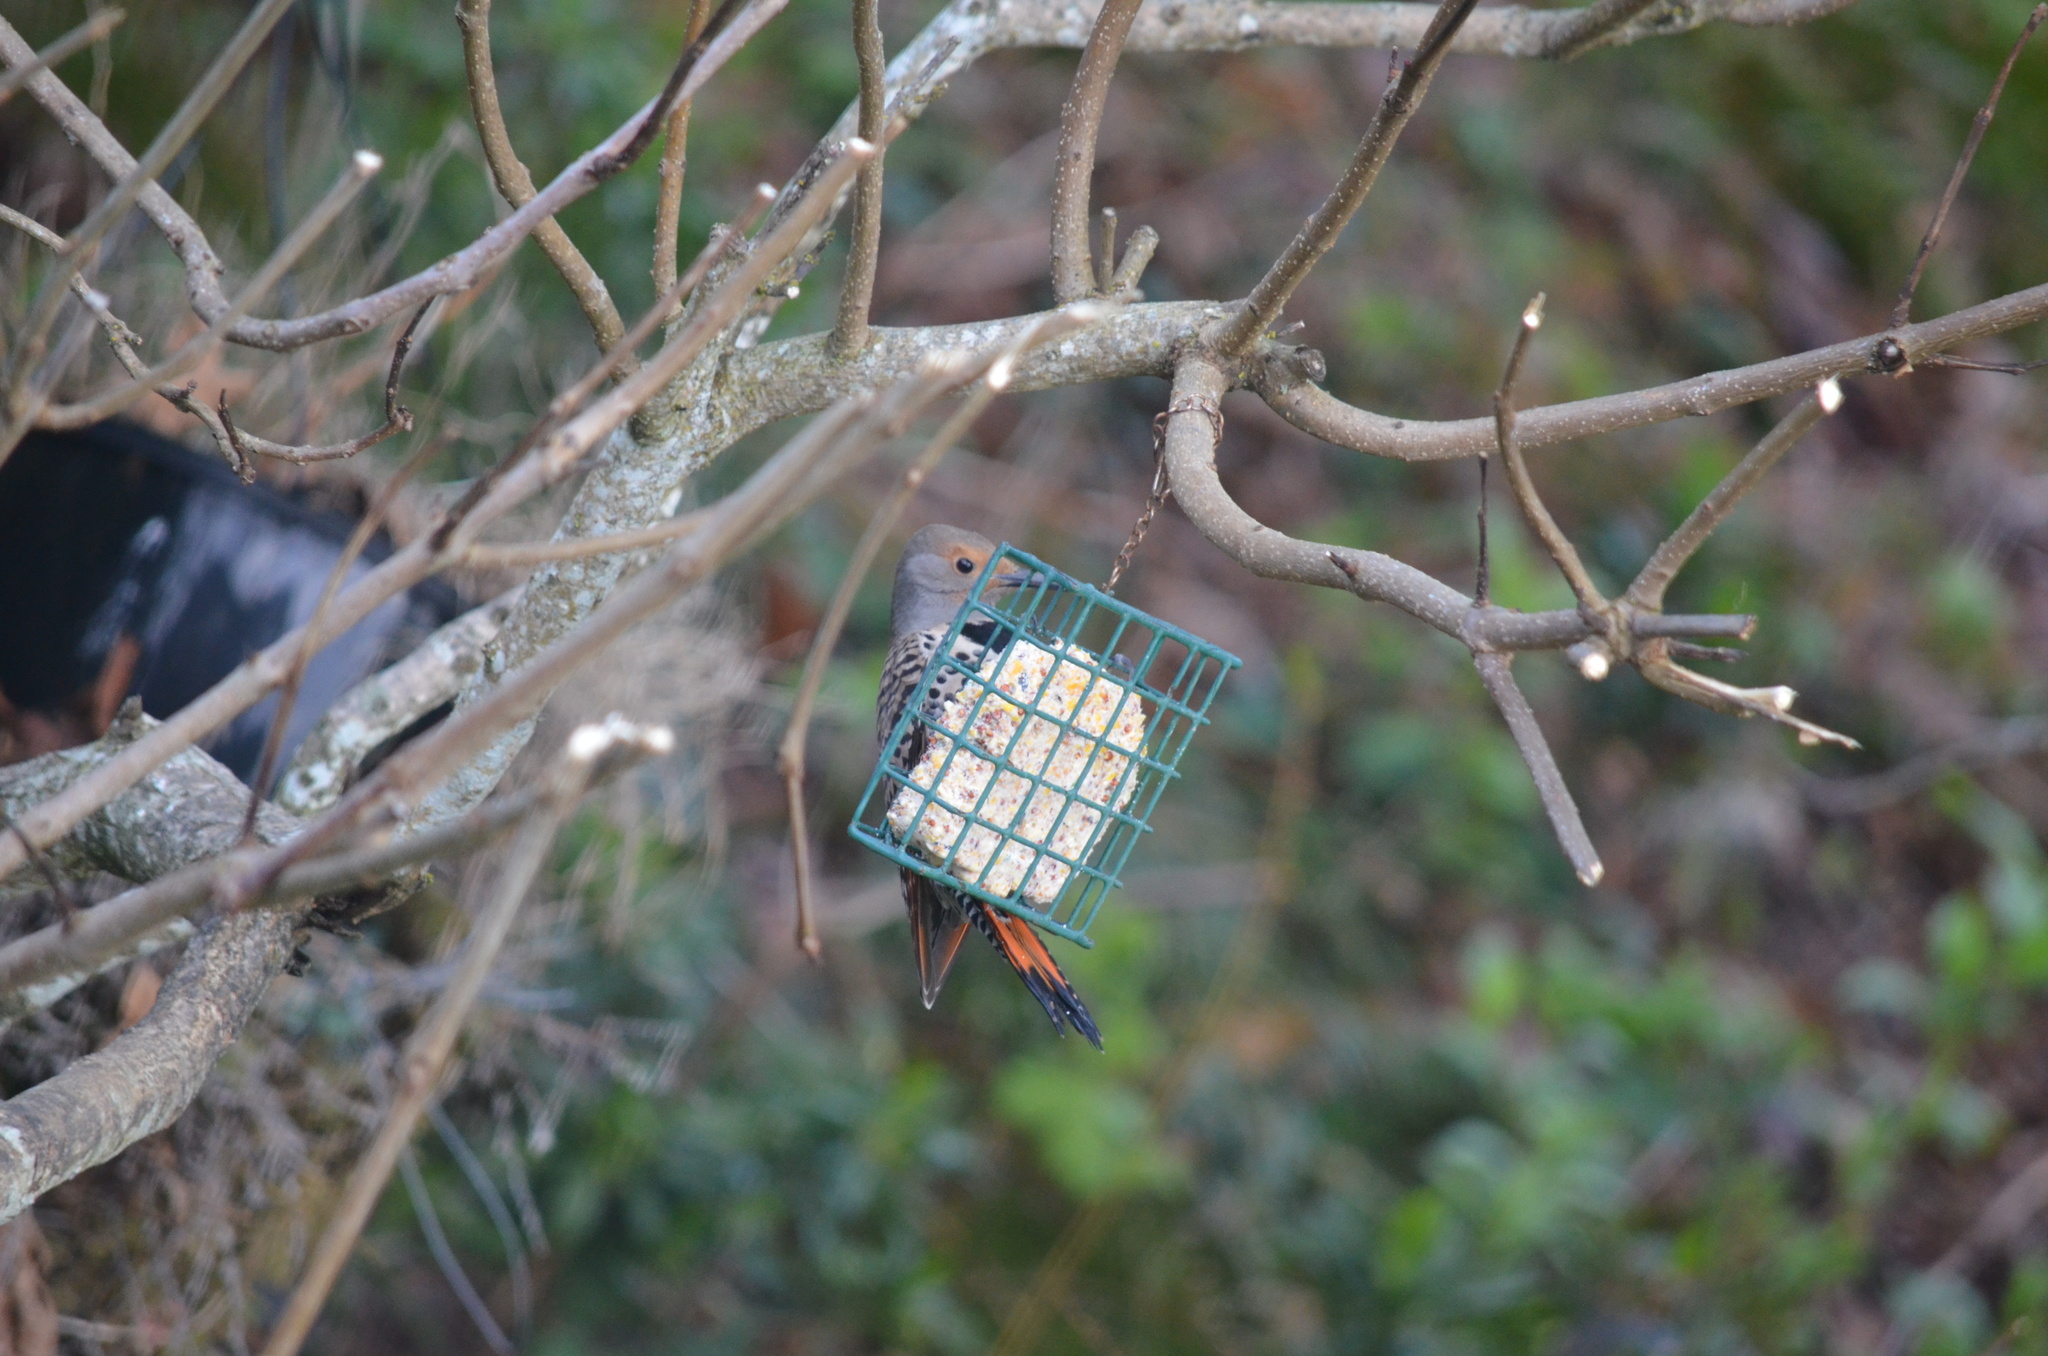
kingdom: Animalia
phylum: Chordata
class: Aves
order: Piciformes
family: Picidae
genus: Colaptes
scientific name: Colaptes auratus
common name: Northern flicker
